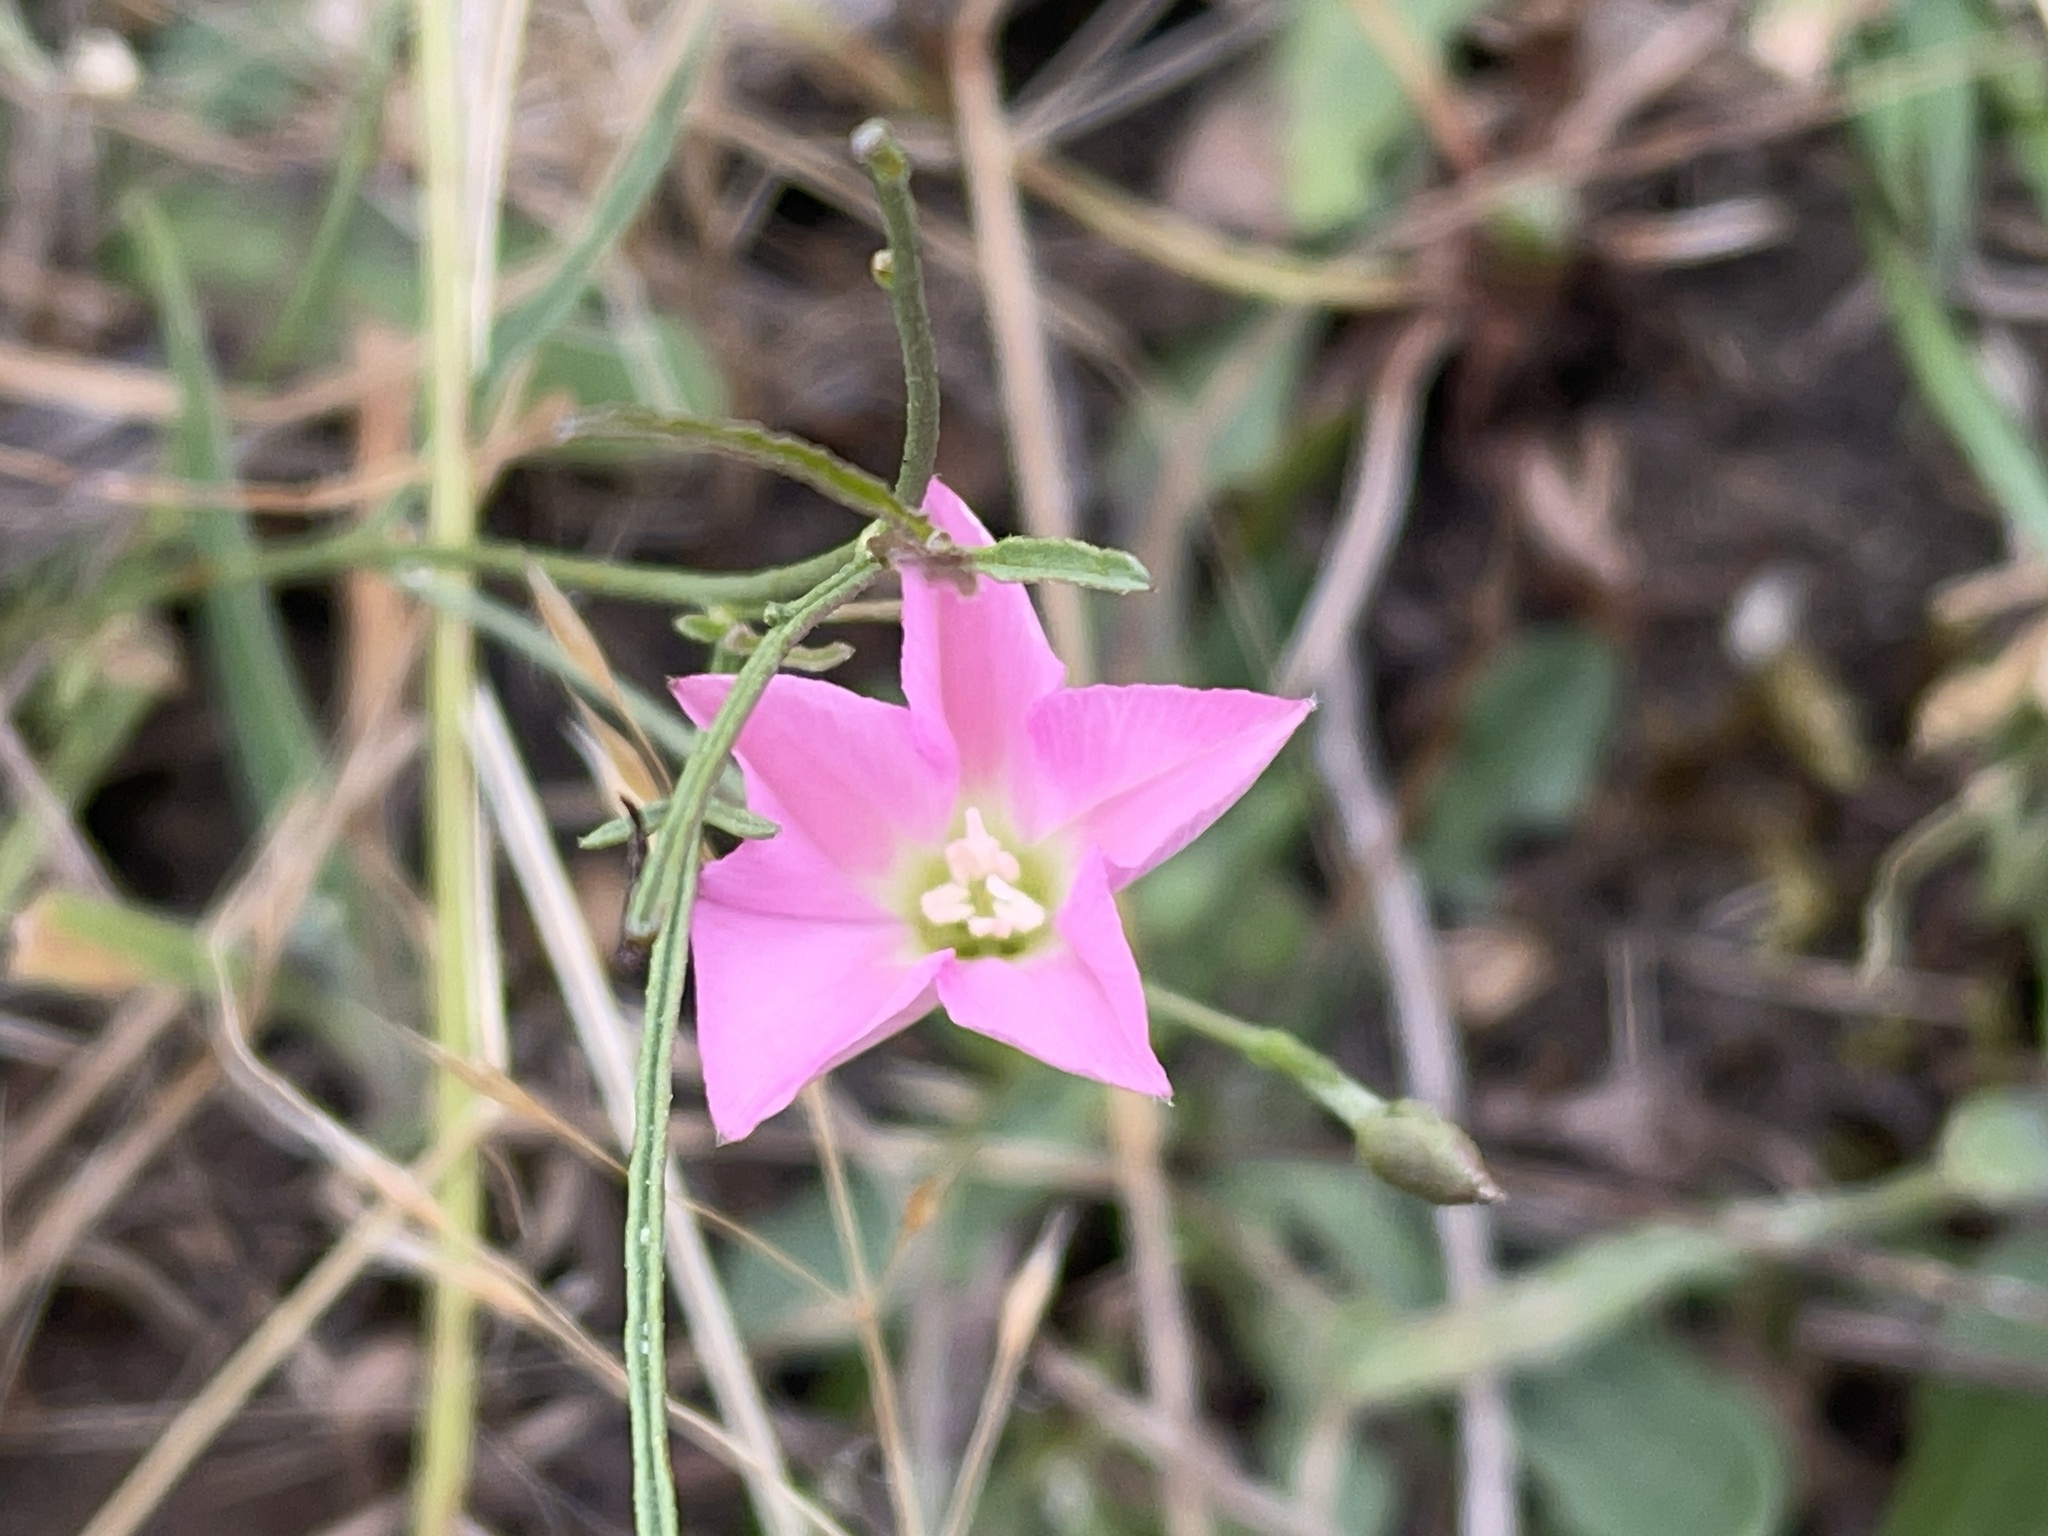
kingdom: Plantae
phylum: Tracheophyta
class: Magnoliopsida
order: Solanales
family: Convolvulaceae
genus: Convolvulus
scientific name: Convolvulus angustissimus
